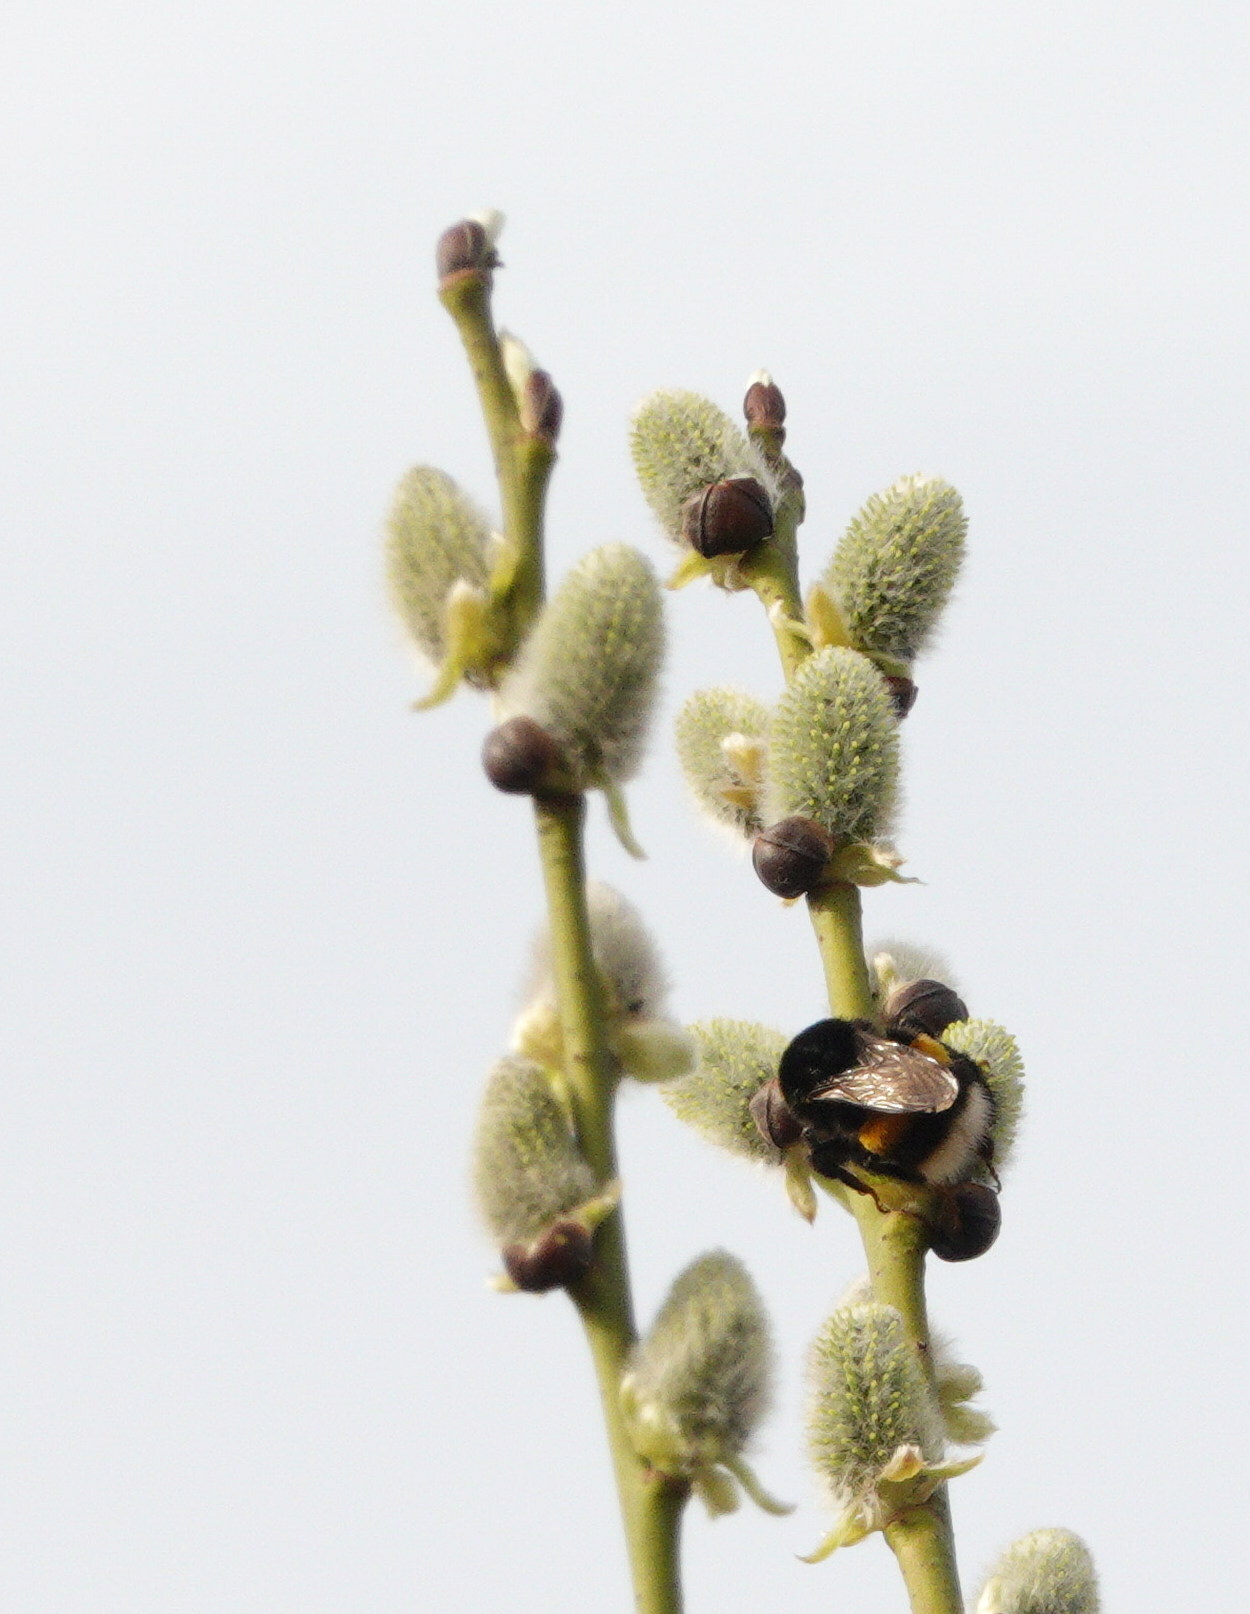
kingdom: Animalia
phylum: Arthropoda
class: Insecta
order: Hymenoptera
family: Apidae
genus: Bombus
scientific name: Bombus
